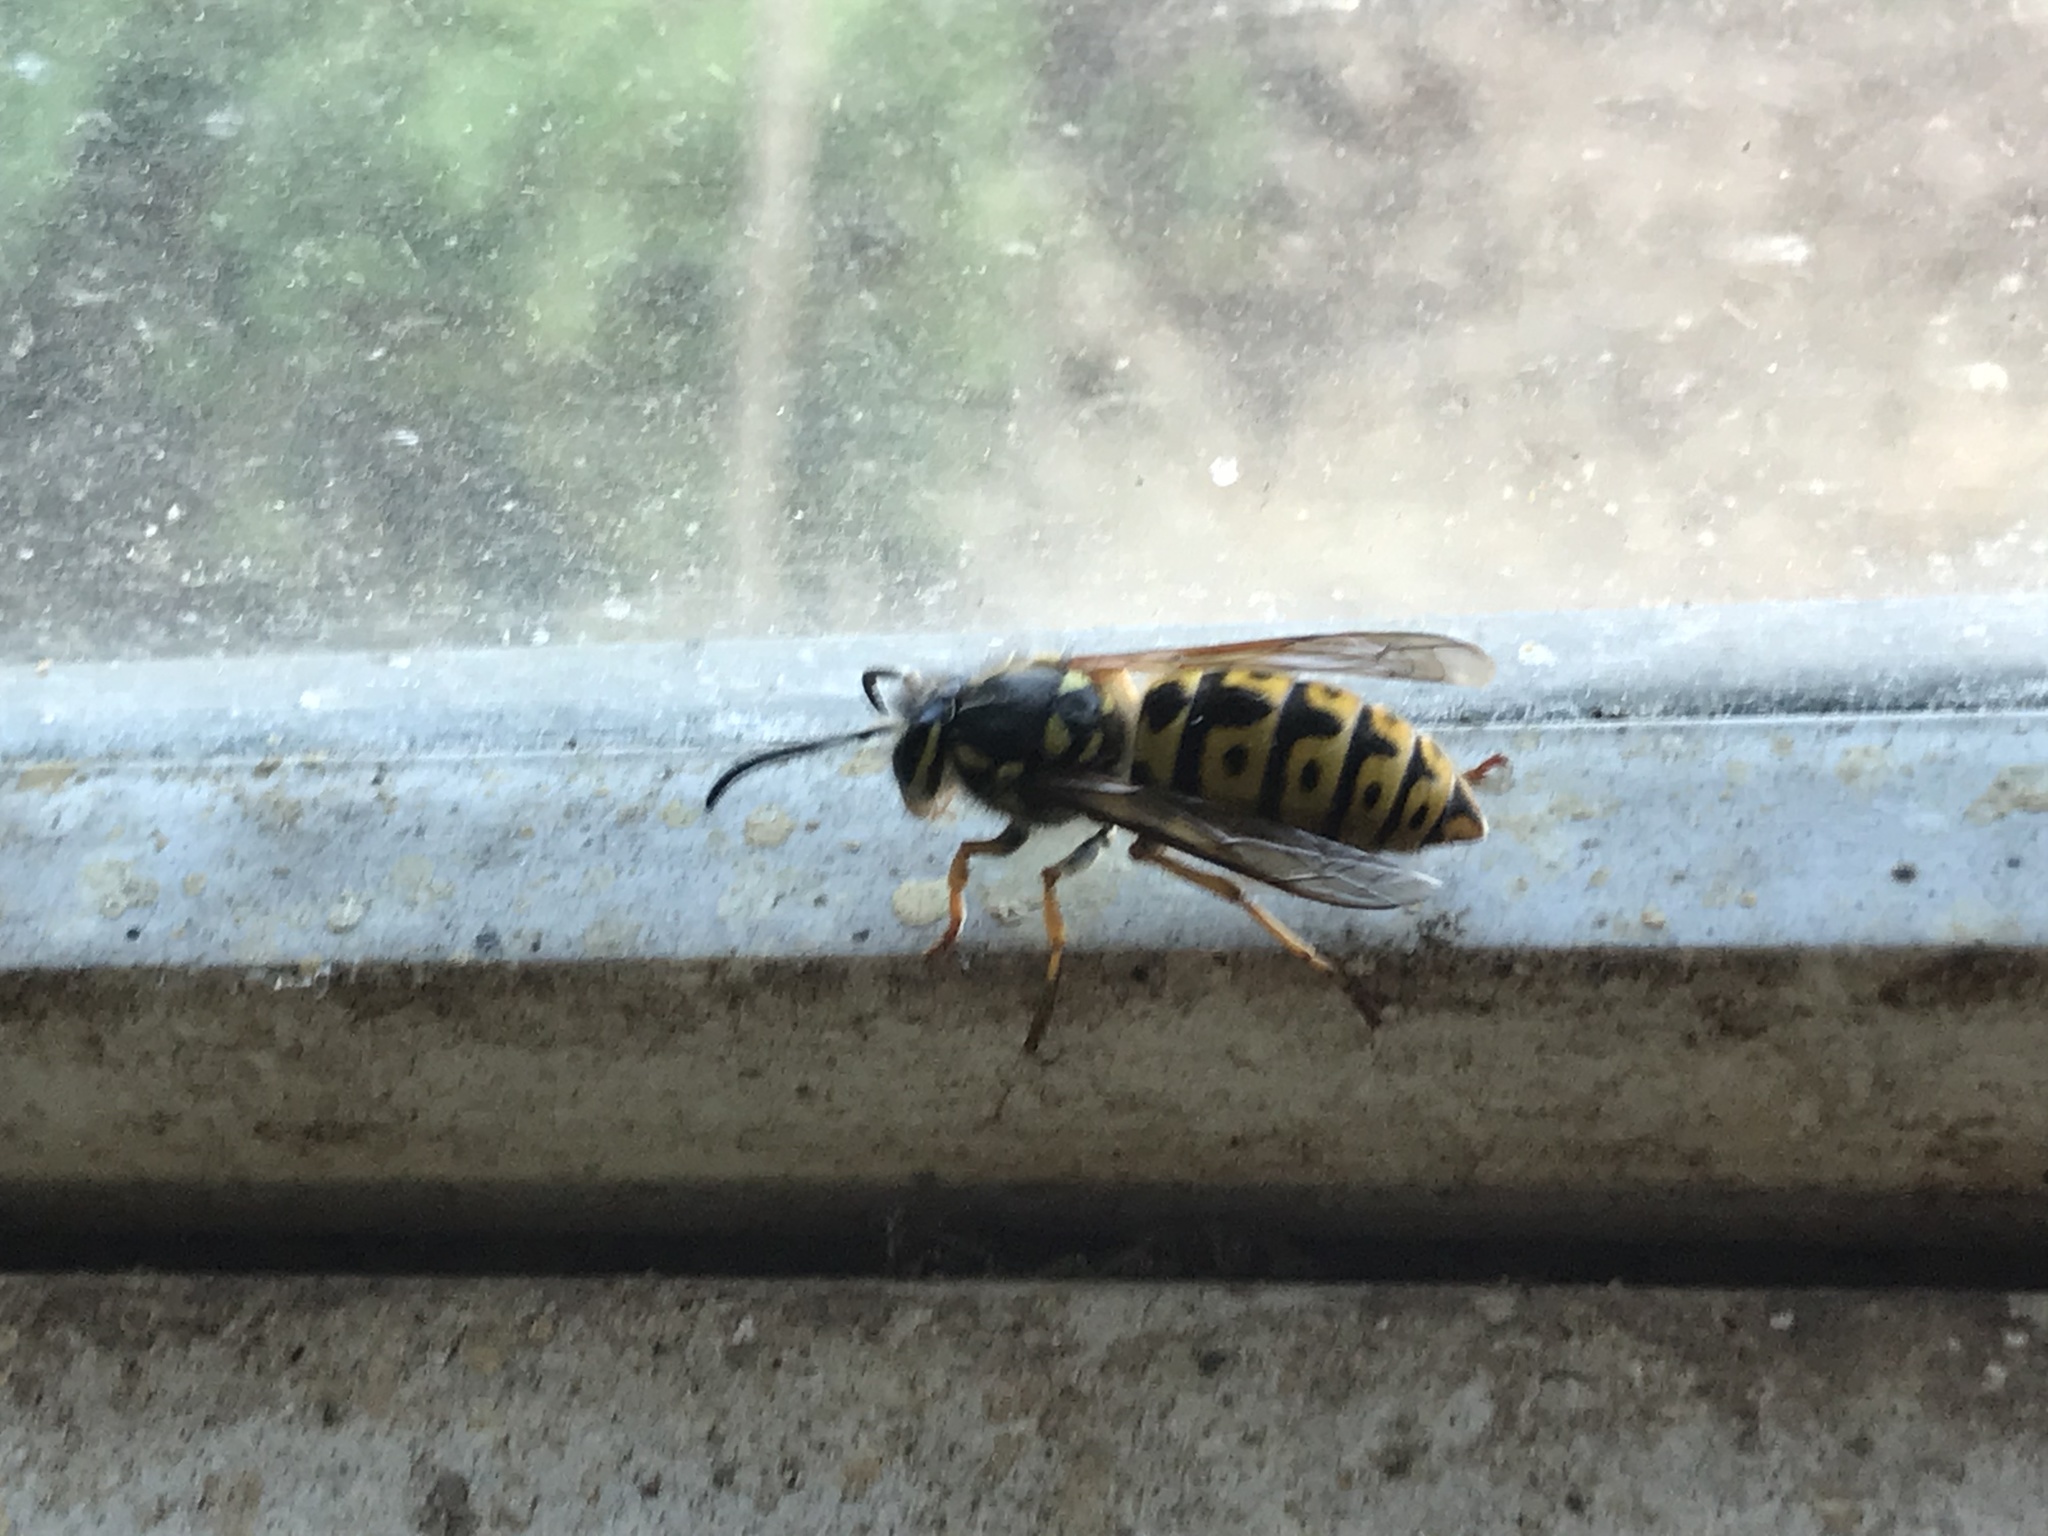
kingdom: Animalia
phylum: Arthropoda
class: Insecta
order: Hymenoptera
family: Vespidae
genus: Vespula
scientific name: Vespula germanica
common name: German wasp
